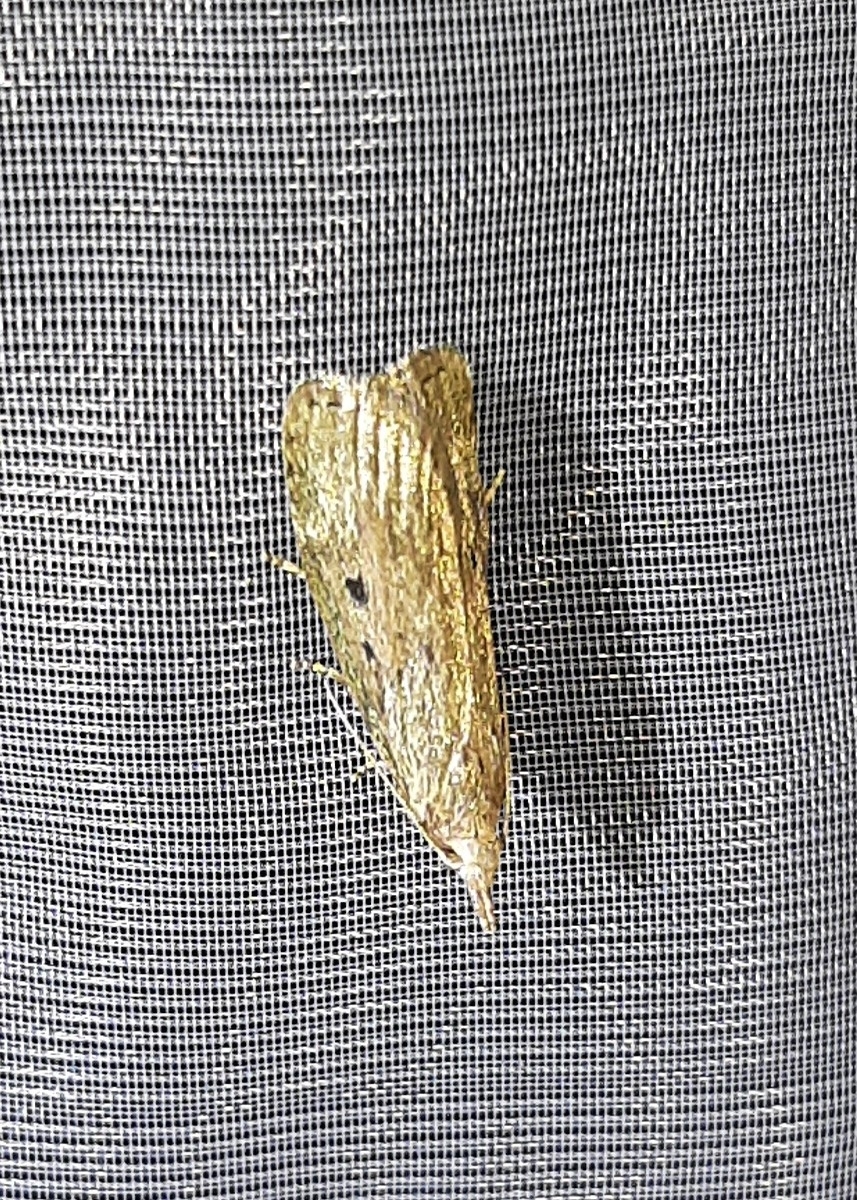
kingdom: Animalia
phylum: Arthropoda
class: Insecta
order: Lepidoptera
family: Pyralidae
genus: Aphomia
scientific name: Aphomia sociella
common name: Bee moth
